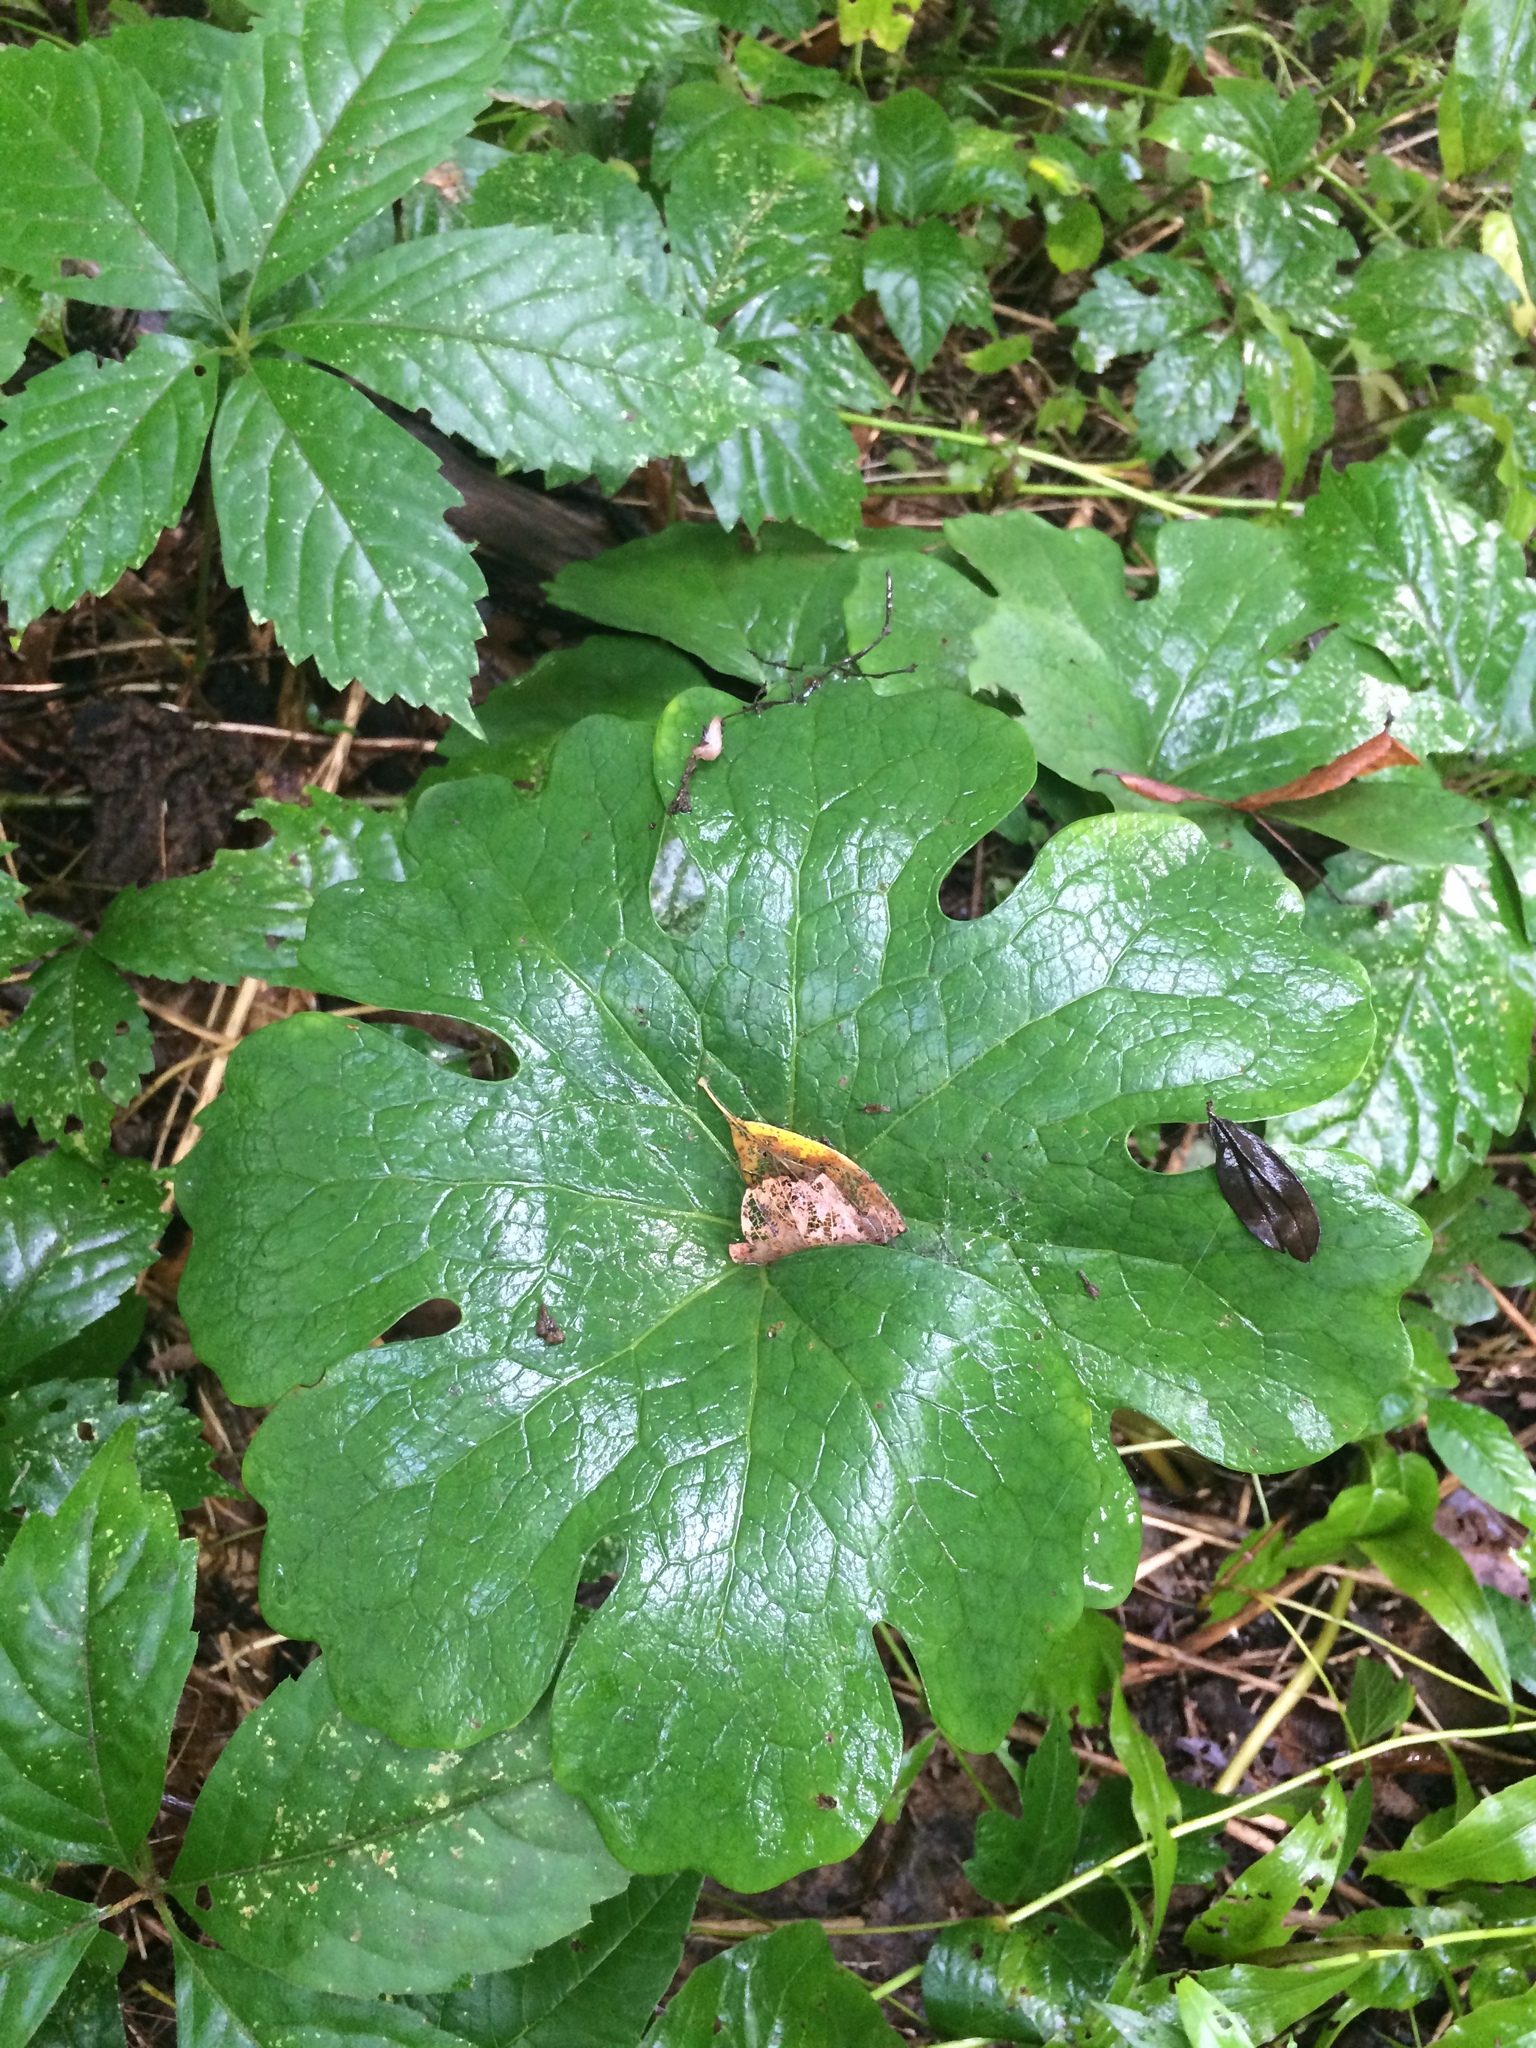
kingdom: Plantae
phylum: Tracheophyta
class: Magnoliopsida
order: Ranunculales
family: Papaveraceae
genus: Sanguinaria
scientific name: Sanguinaria canadensis
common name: Bloodroot
